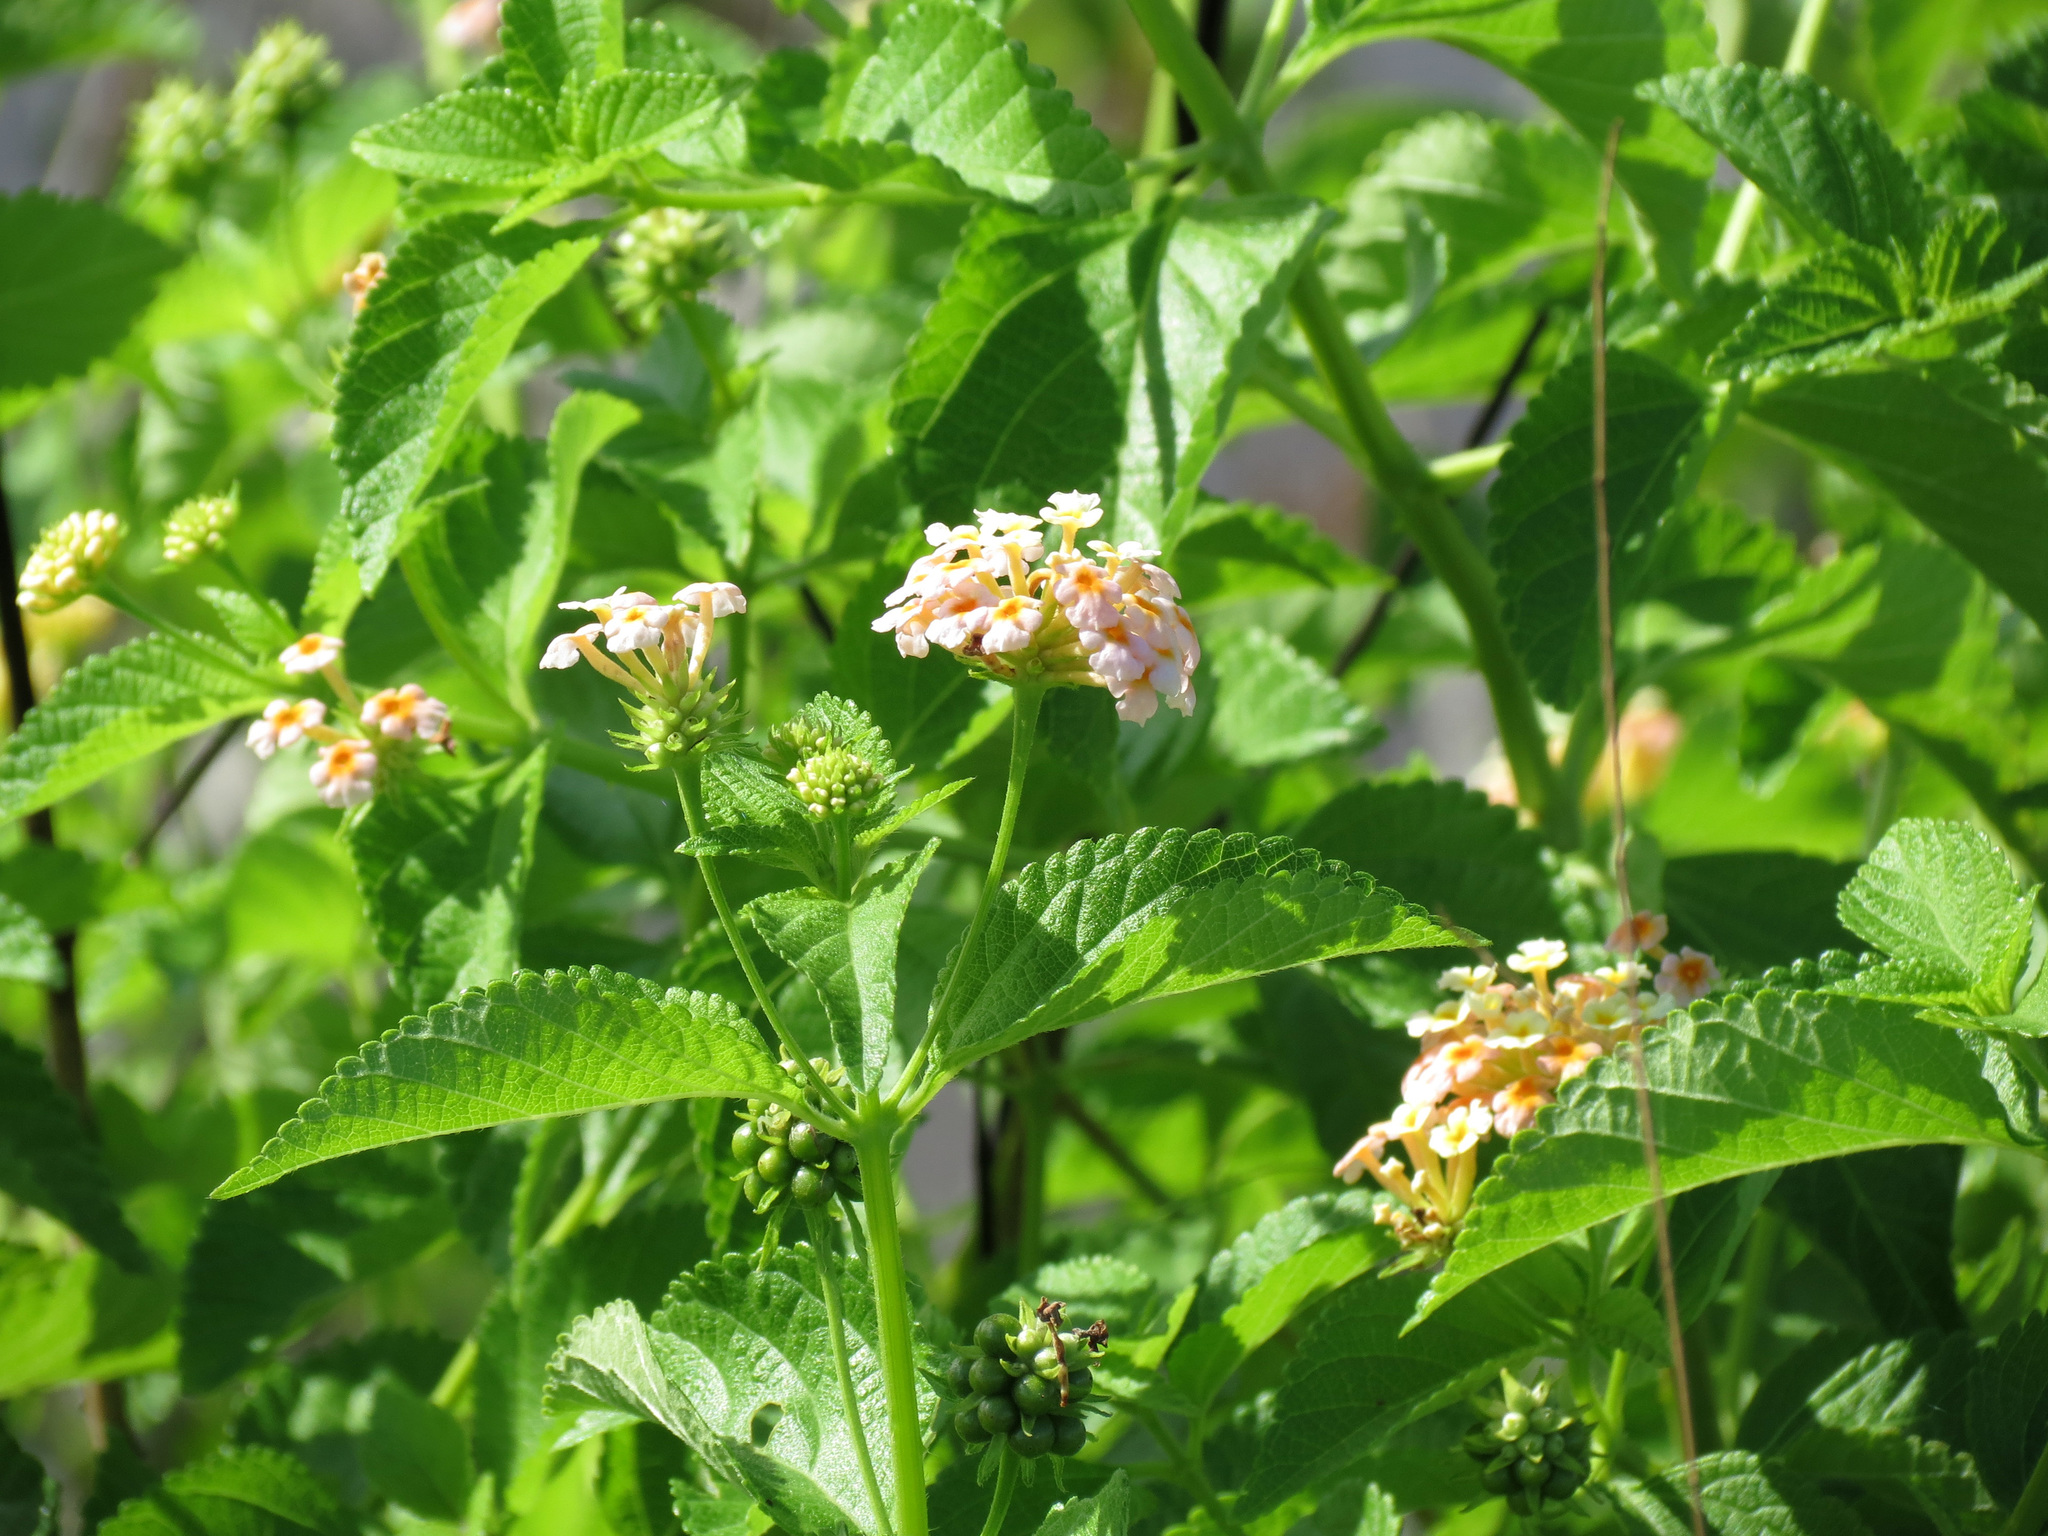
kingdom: Plantae
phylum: Tracheophyta
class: Magnoliopsida
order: Lamiales
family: Verbenaceae
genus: Lantana
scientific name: Lantana camara
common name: Lantana
